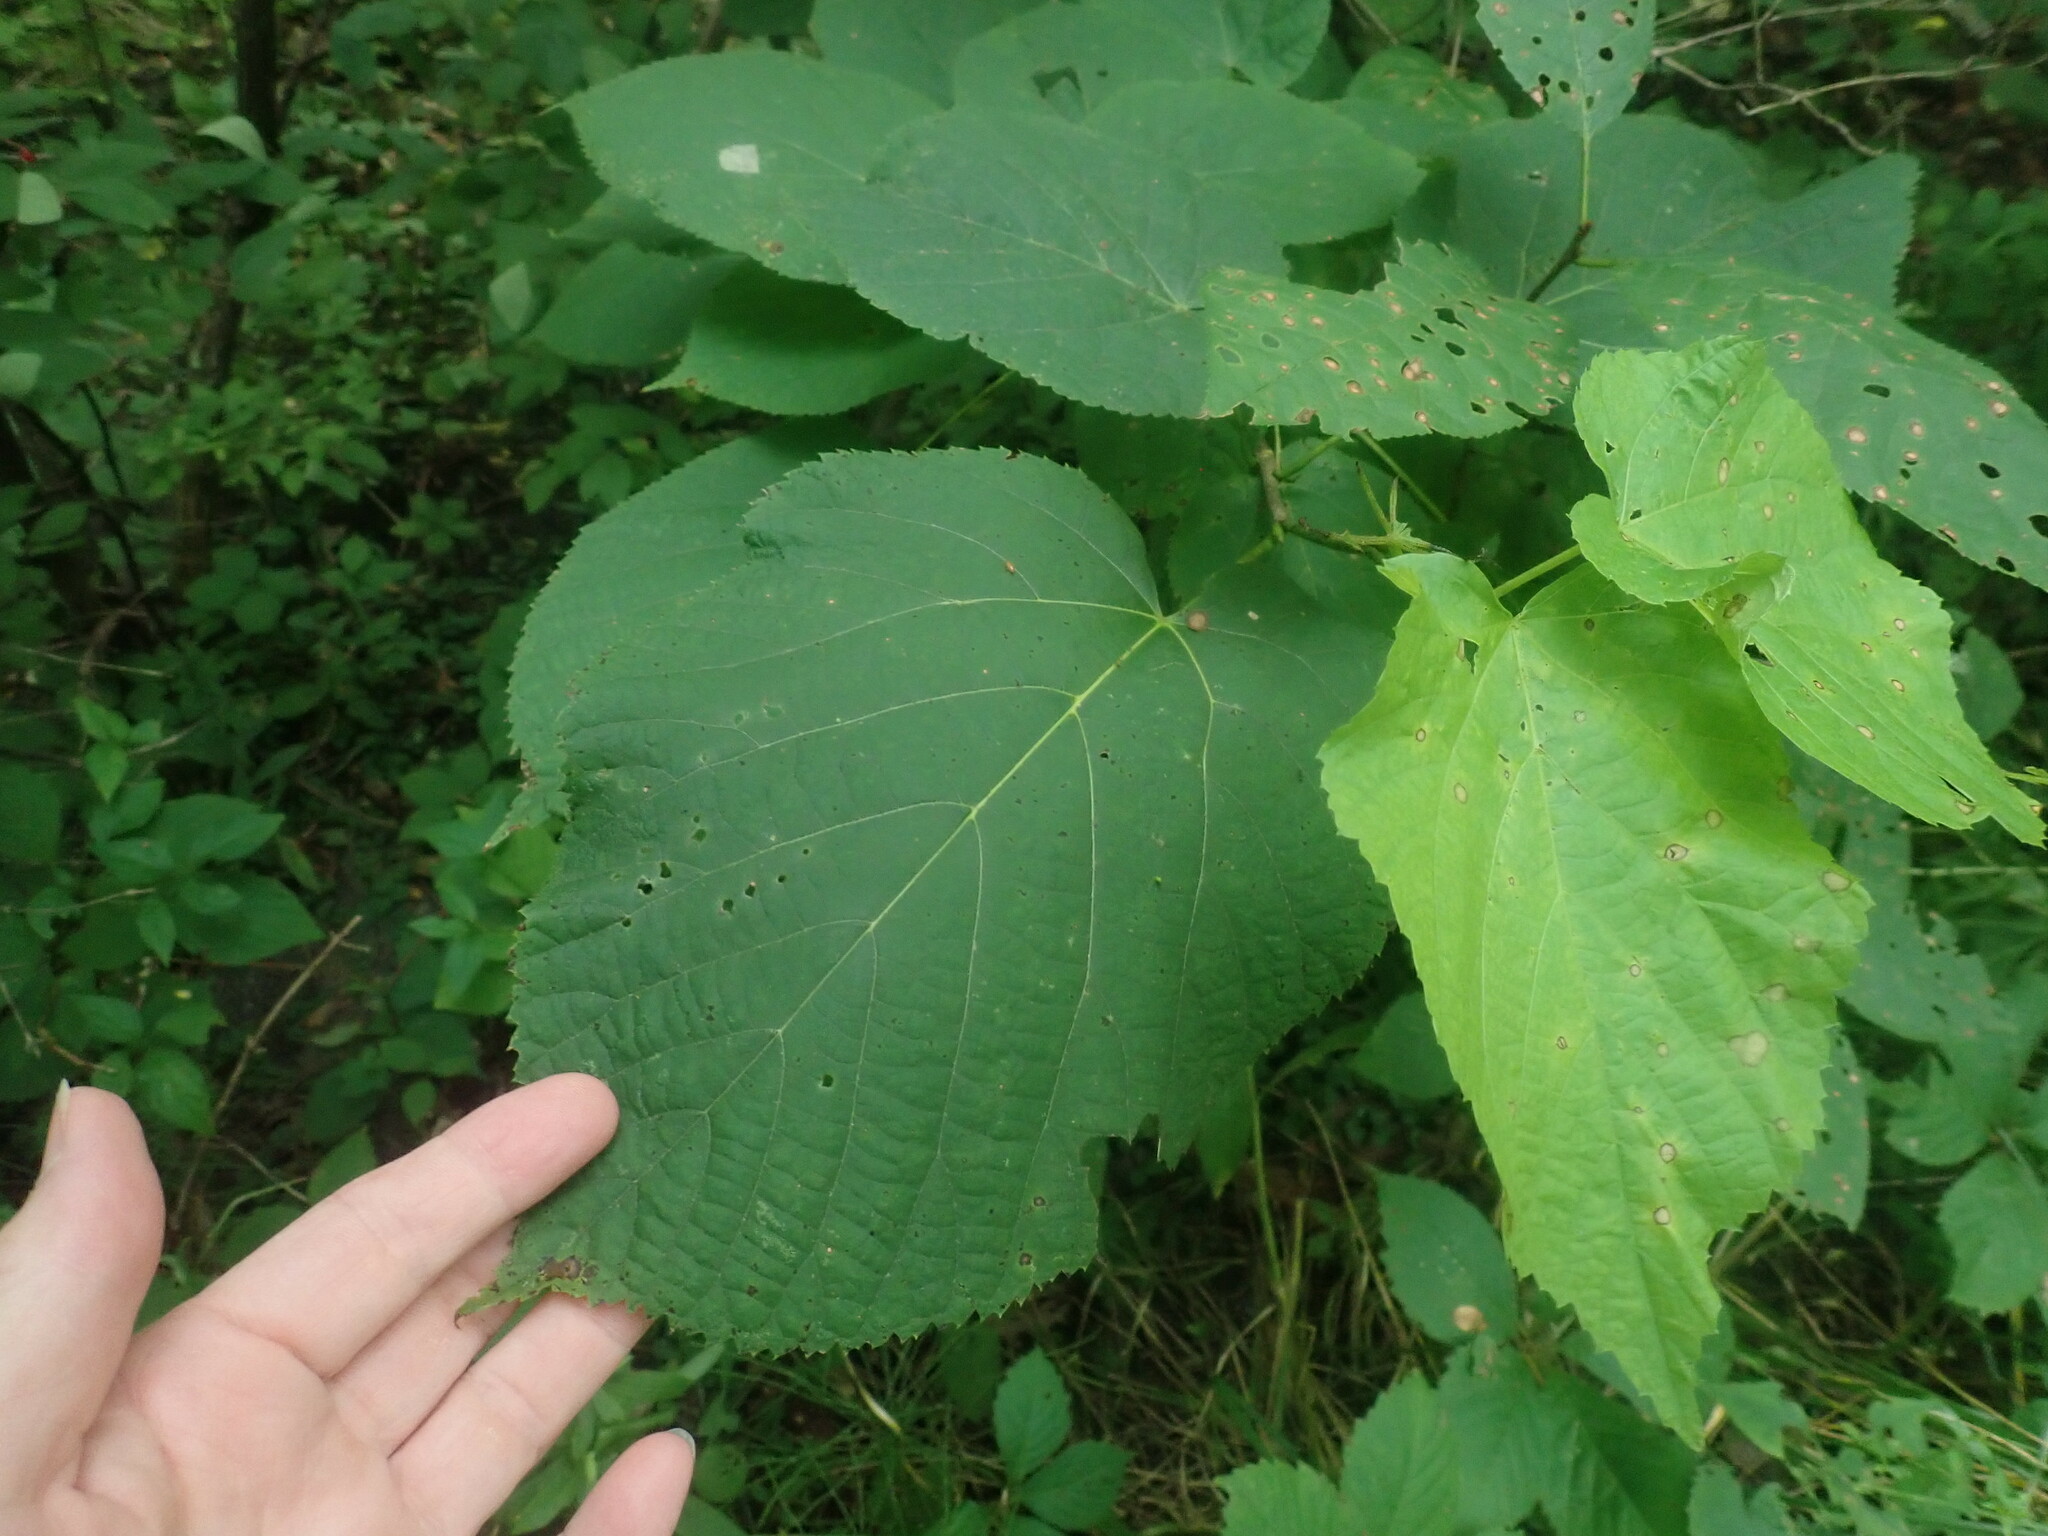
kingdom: Plantae
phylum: Tracheophyta
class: Magnoliopsida
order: Malvales
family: Malvaceae
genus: Tilia
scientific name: Tilia americana
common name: Basswood
